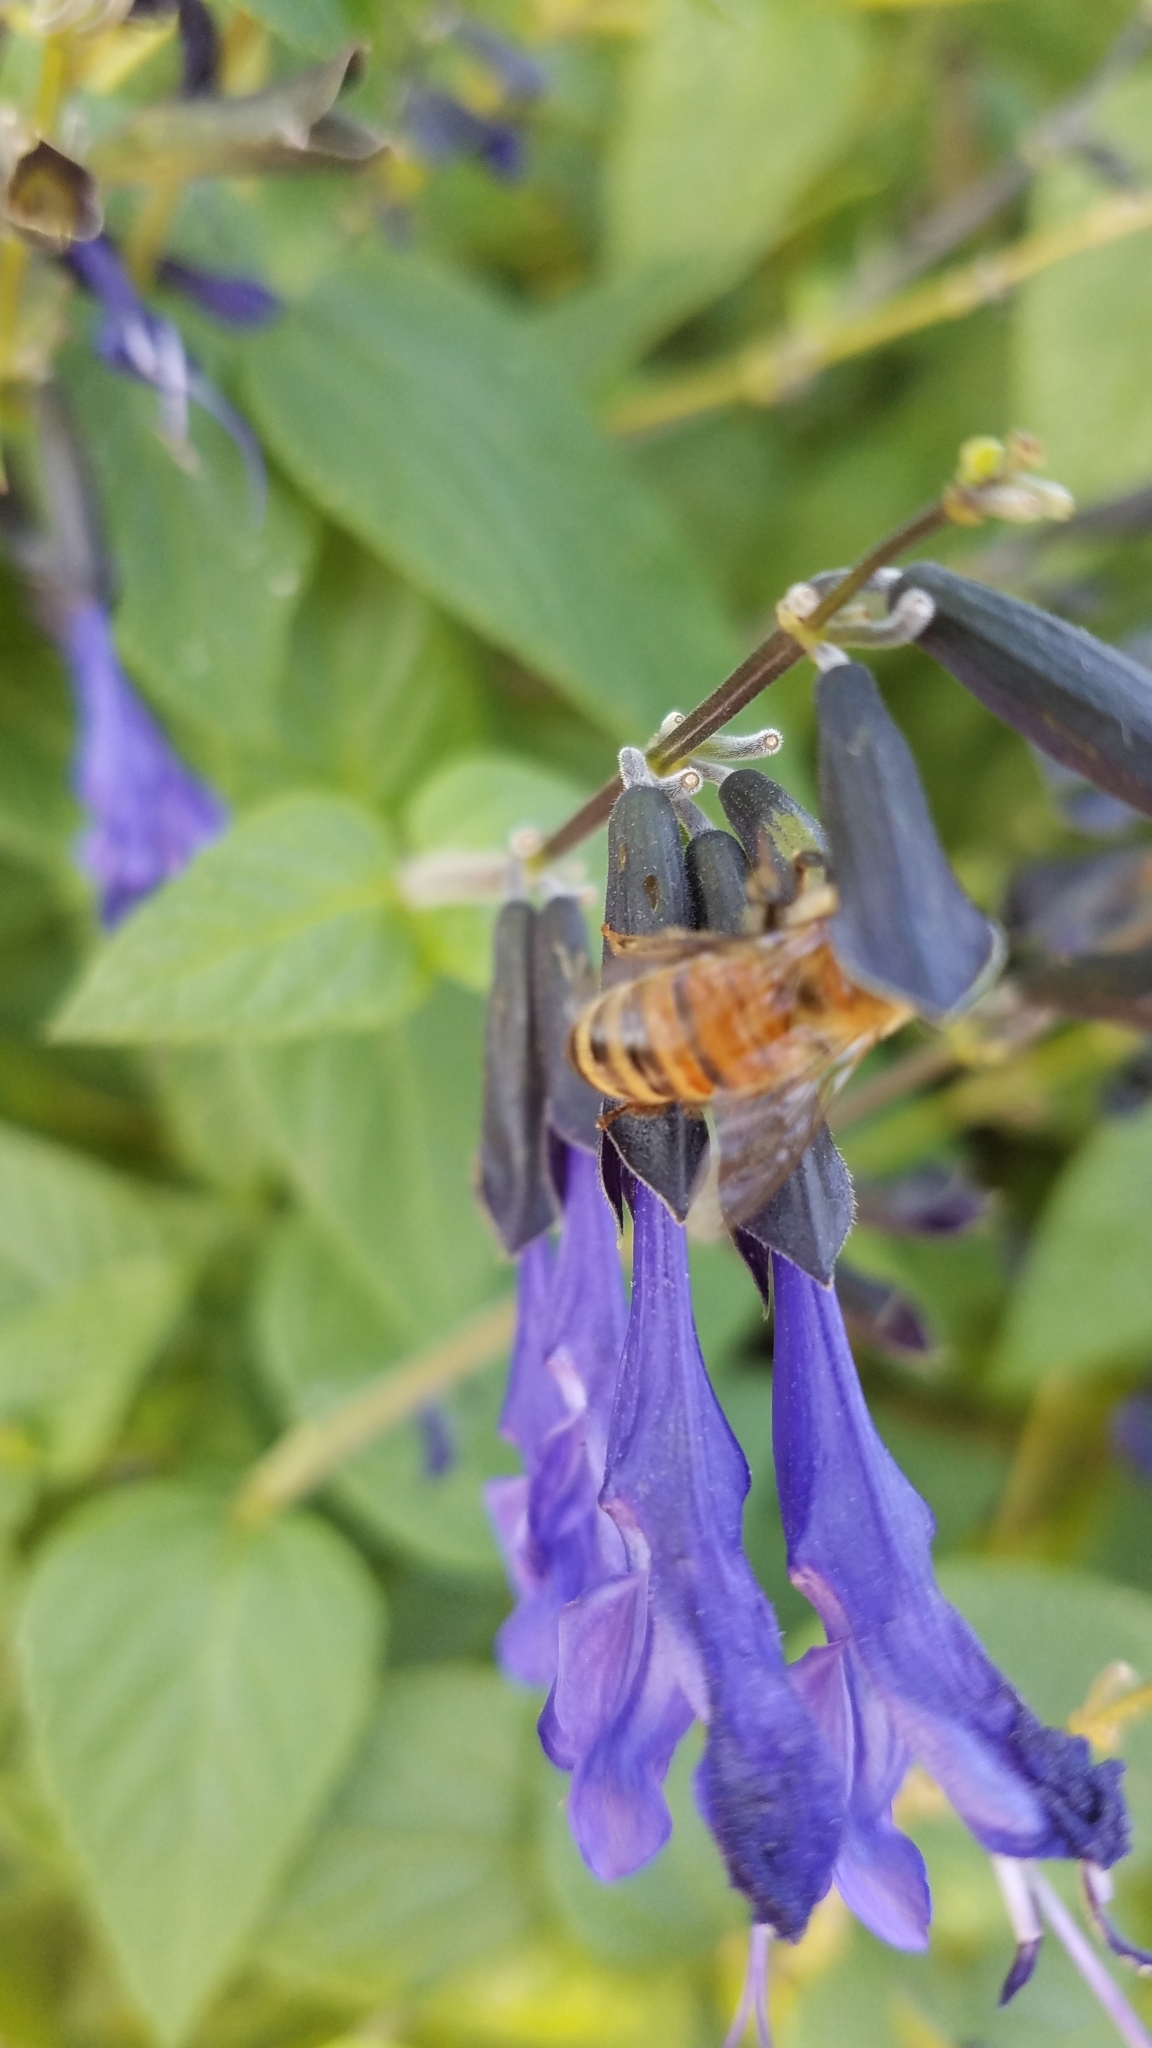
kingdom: Animalia
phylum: Arthropoda
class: Insecta
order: Hymenoptera
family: Apidae
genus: Apis
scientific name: Apis mellifera
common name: Honey bee
